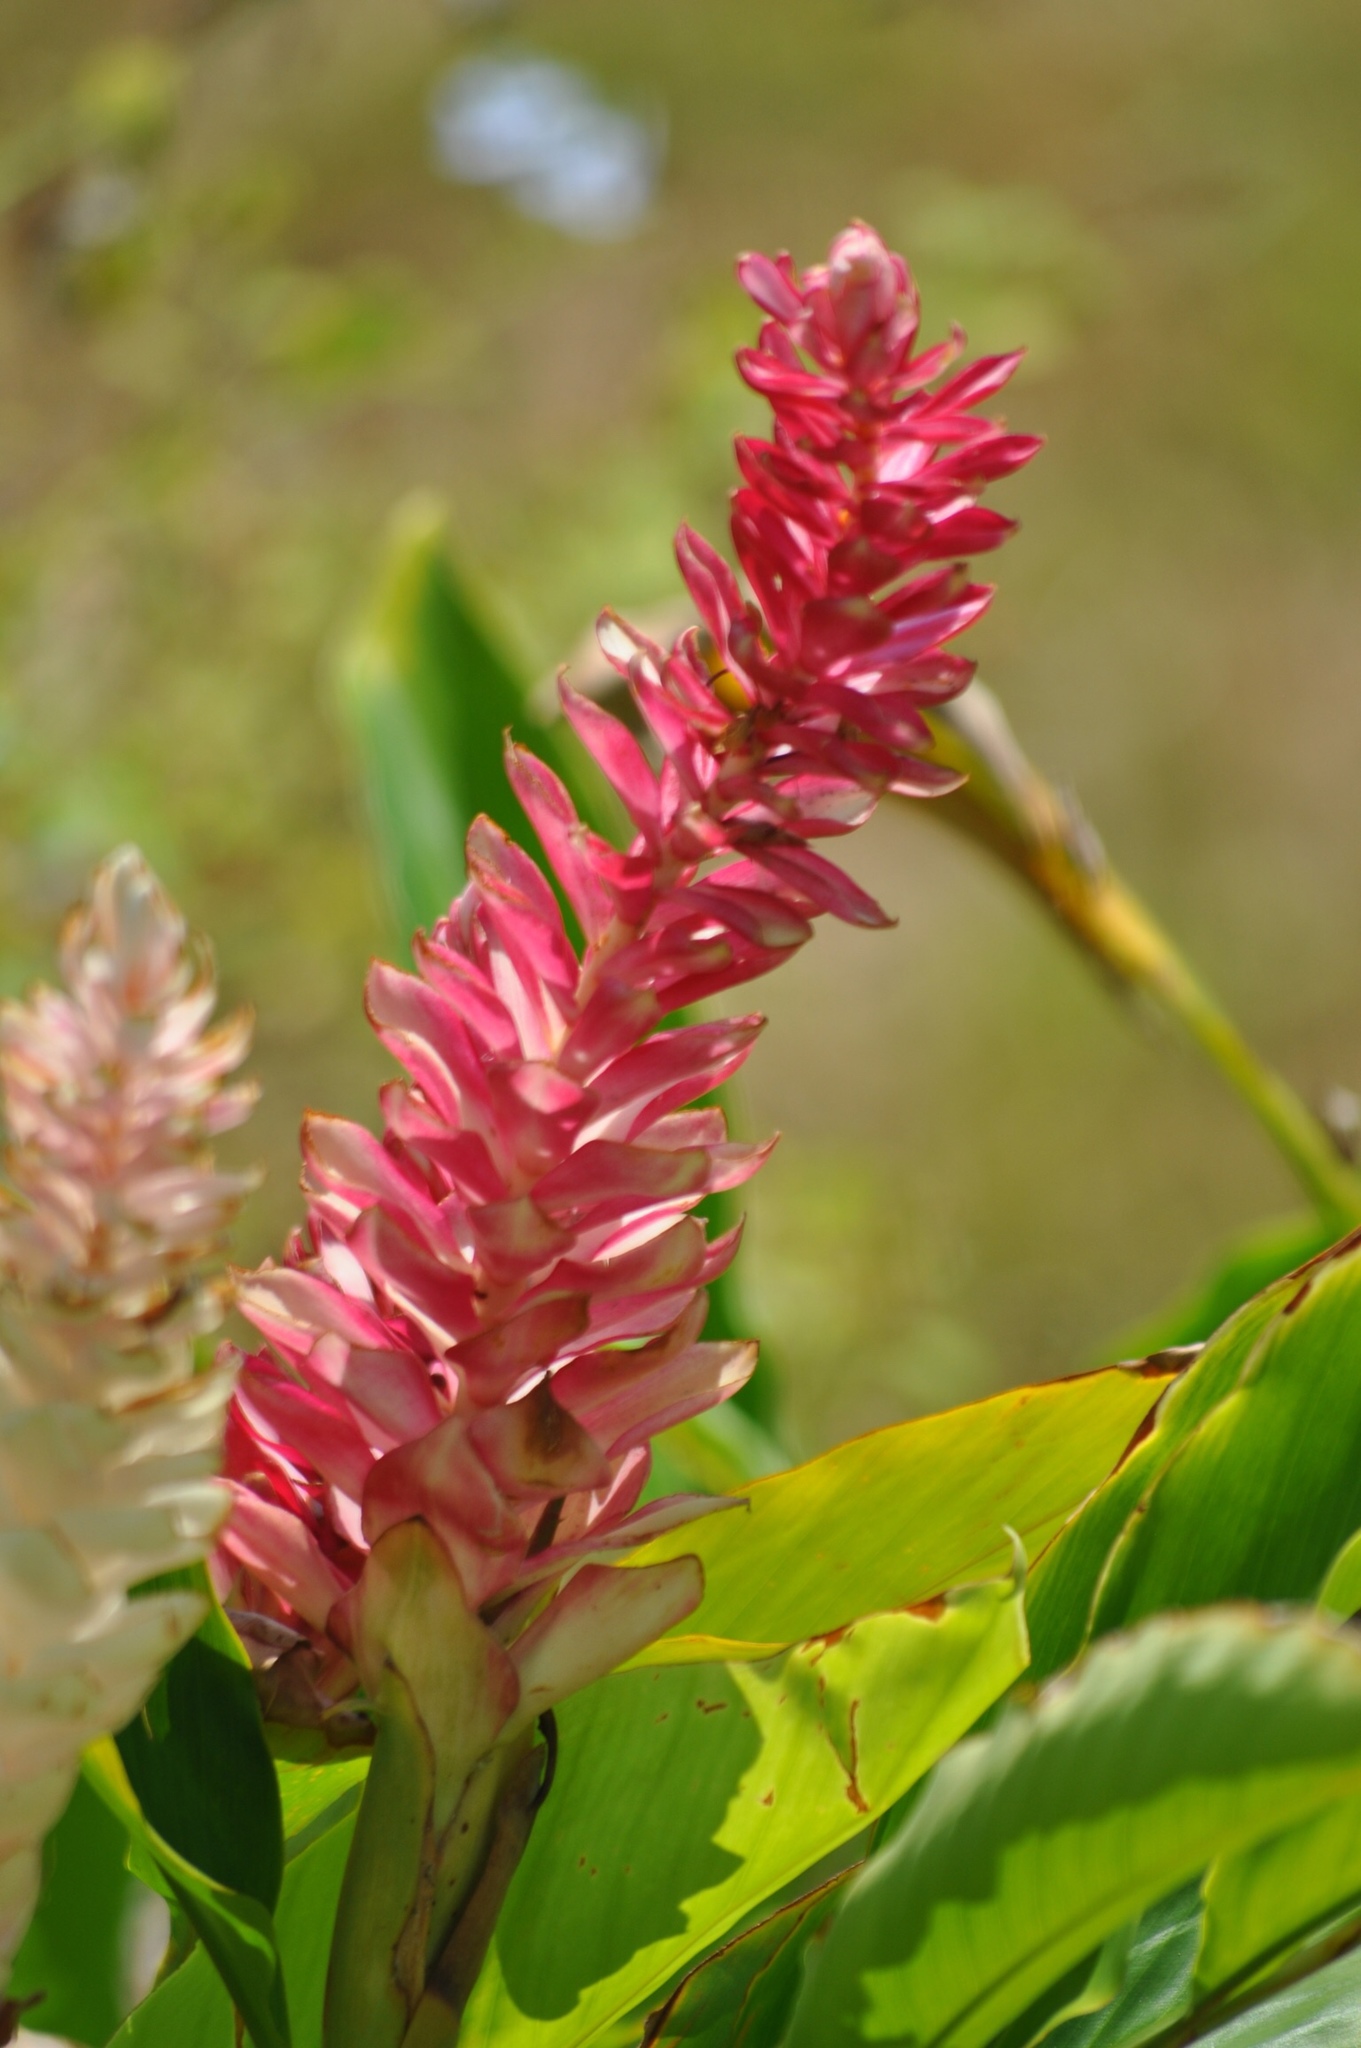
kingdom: Plantae
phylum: Tracheophyta
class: Liliopsida
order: Zingiberales
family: Zingiberaceae
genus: Alpinia
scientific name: Alpinia purpurata
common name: Red ginger
